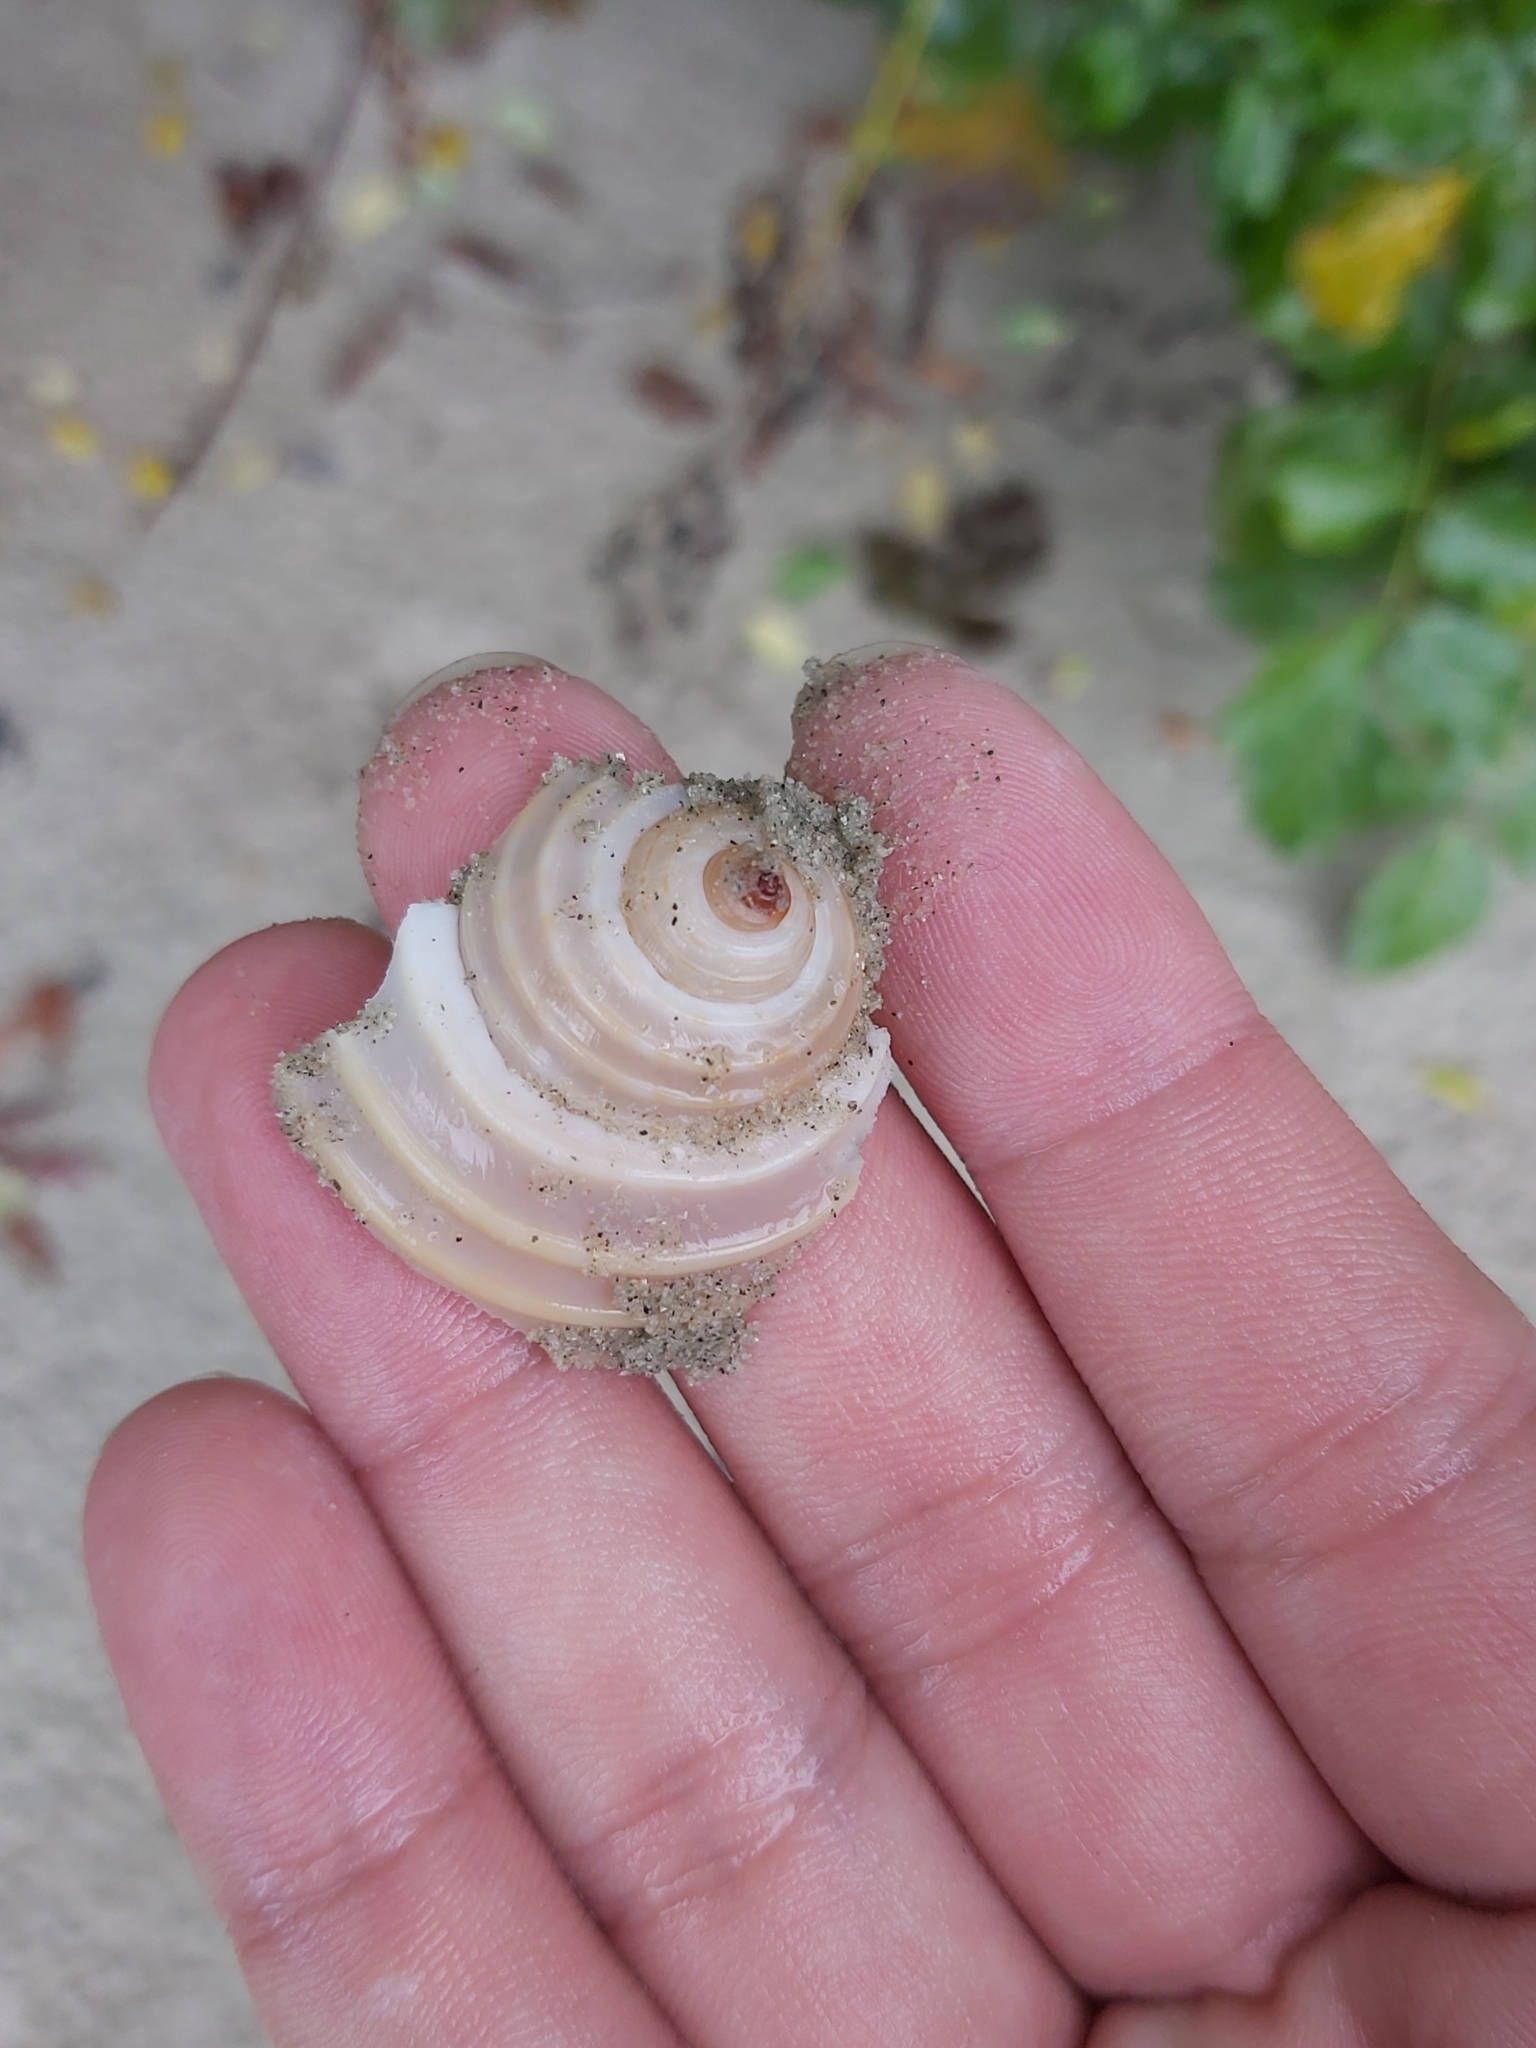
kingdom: Animalia
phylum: Mollusca
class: Gastropoda
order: Littorinimorpha
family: Tonnidae
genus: Tonna
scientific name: Tonna allium
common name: Costate tun
